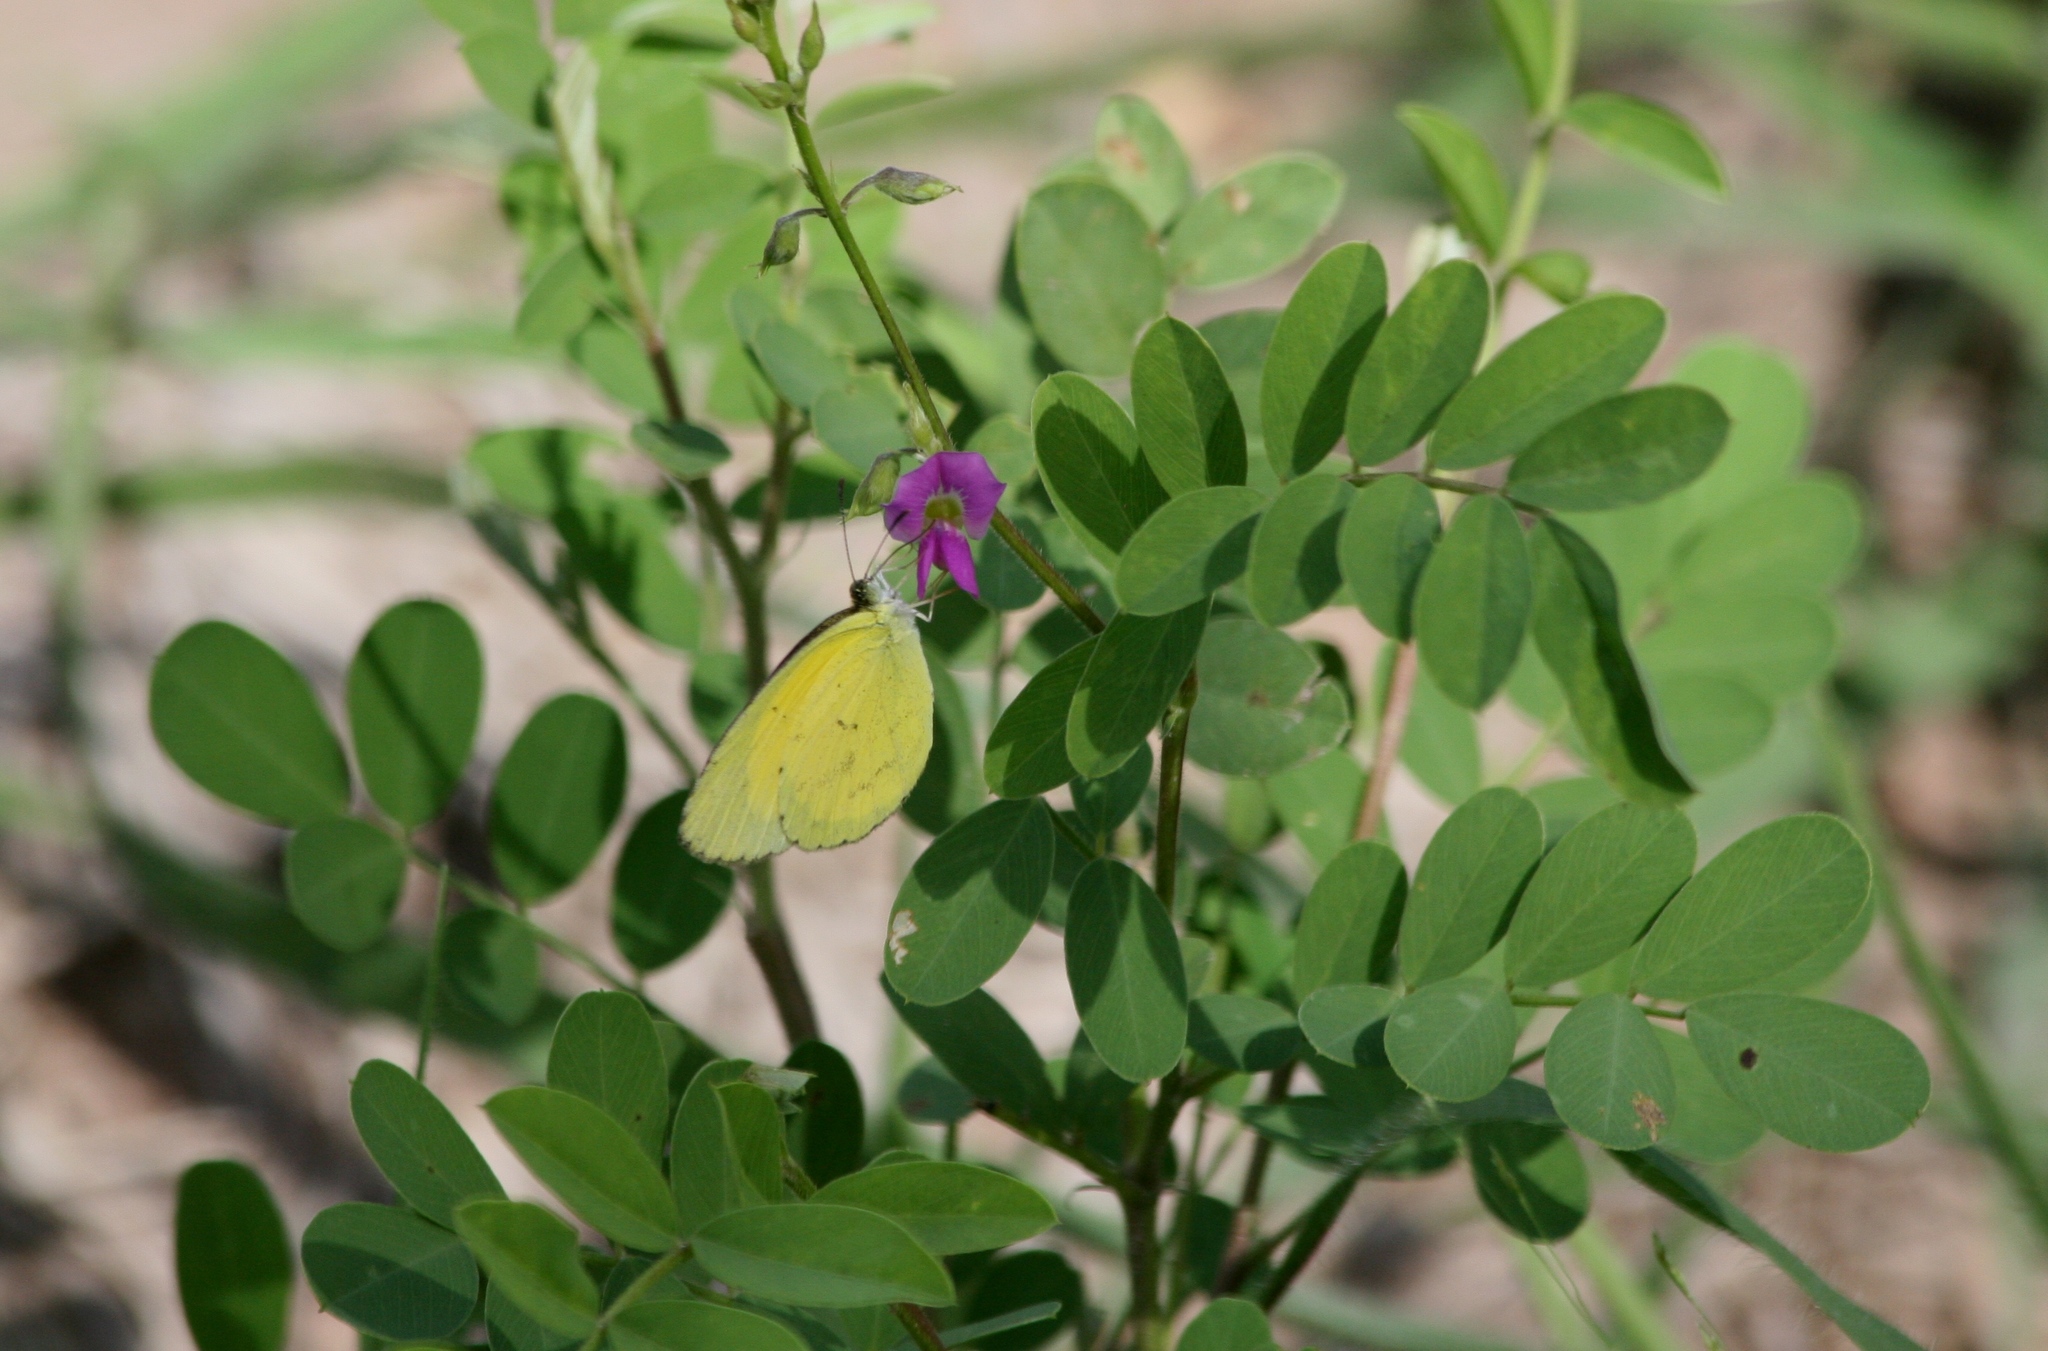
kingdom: Animalia
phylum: Arthropoda
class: Insecta
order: Lepidoptera
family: Pieridae
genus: Eurema
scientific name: Eurema brigitta
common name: Small grass yellow
